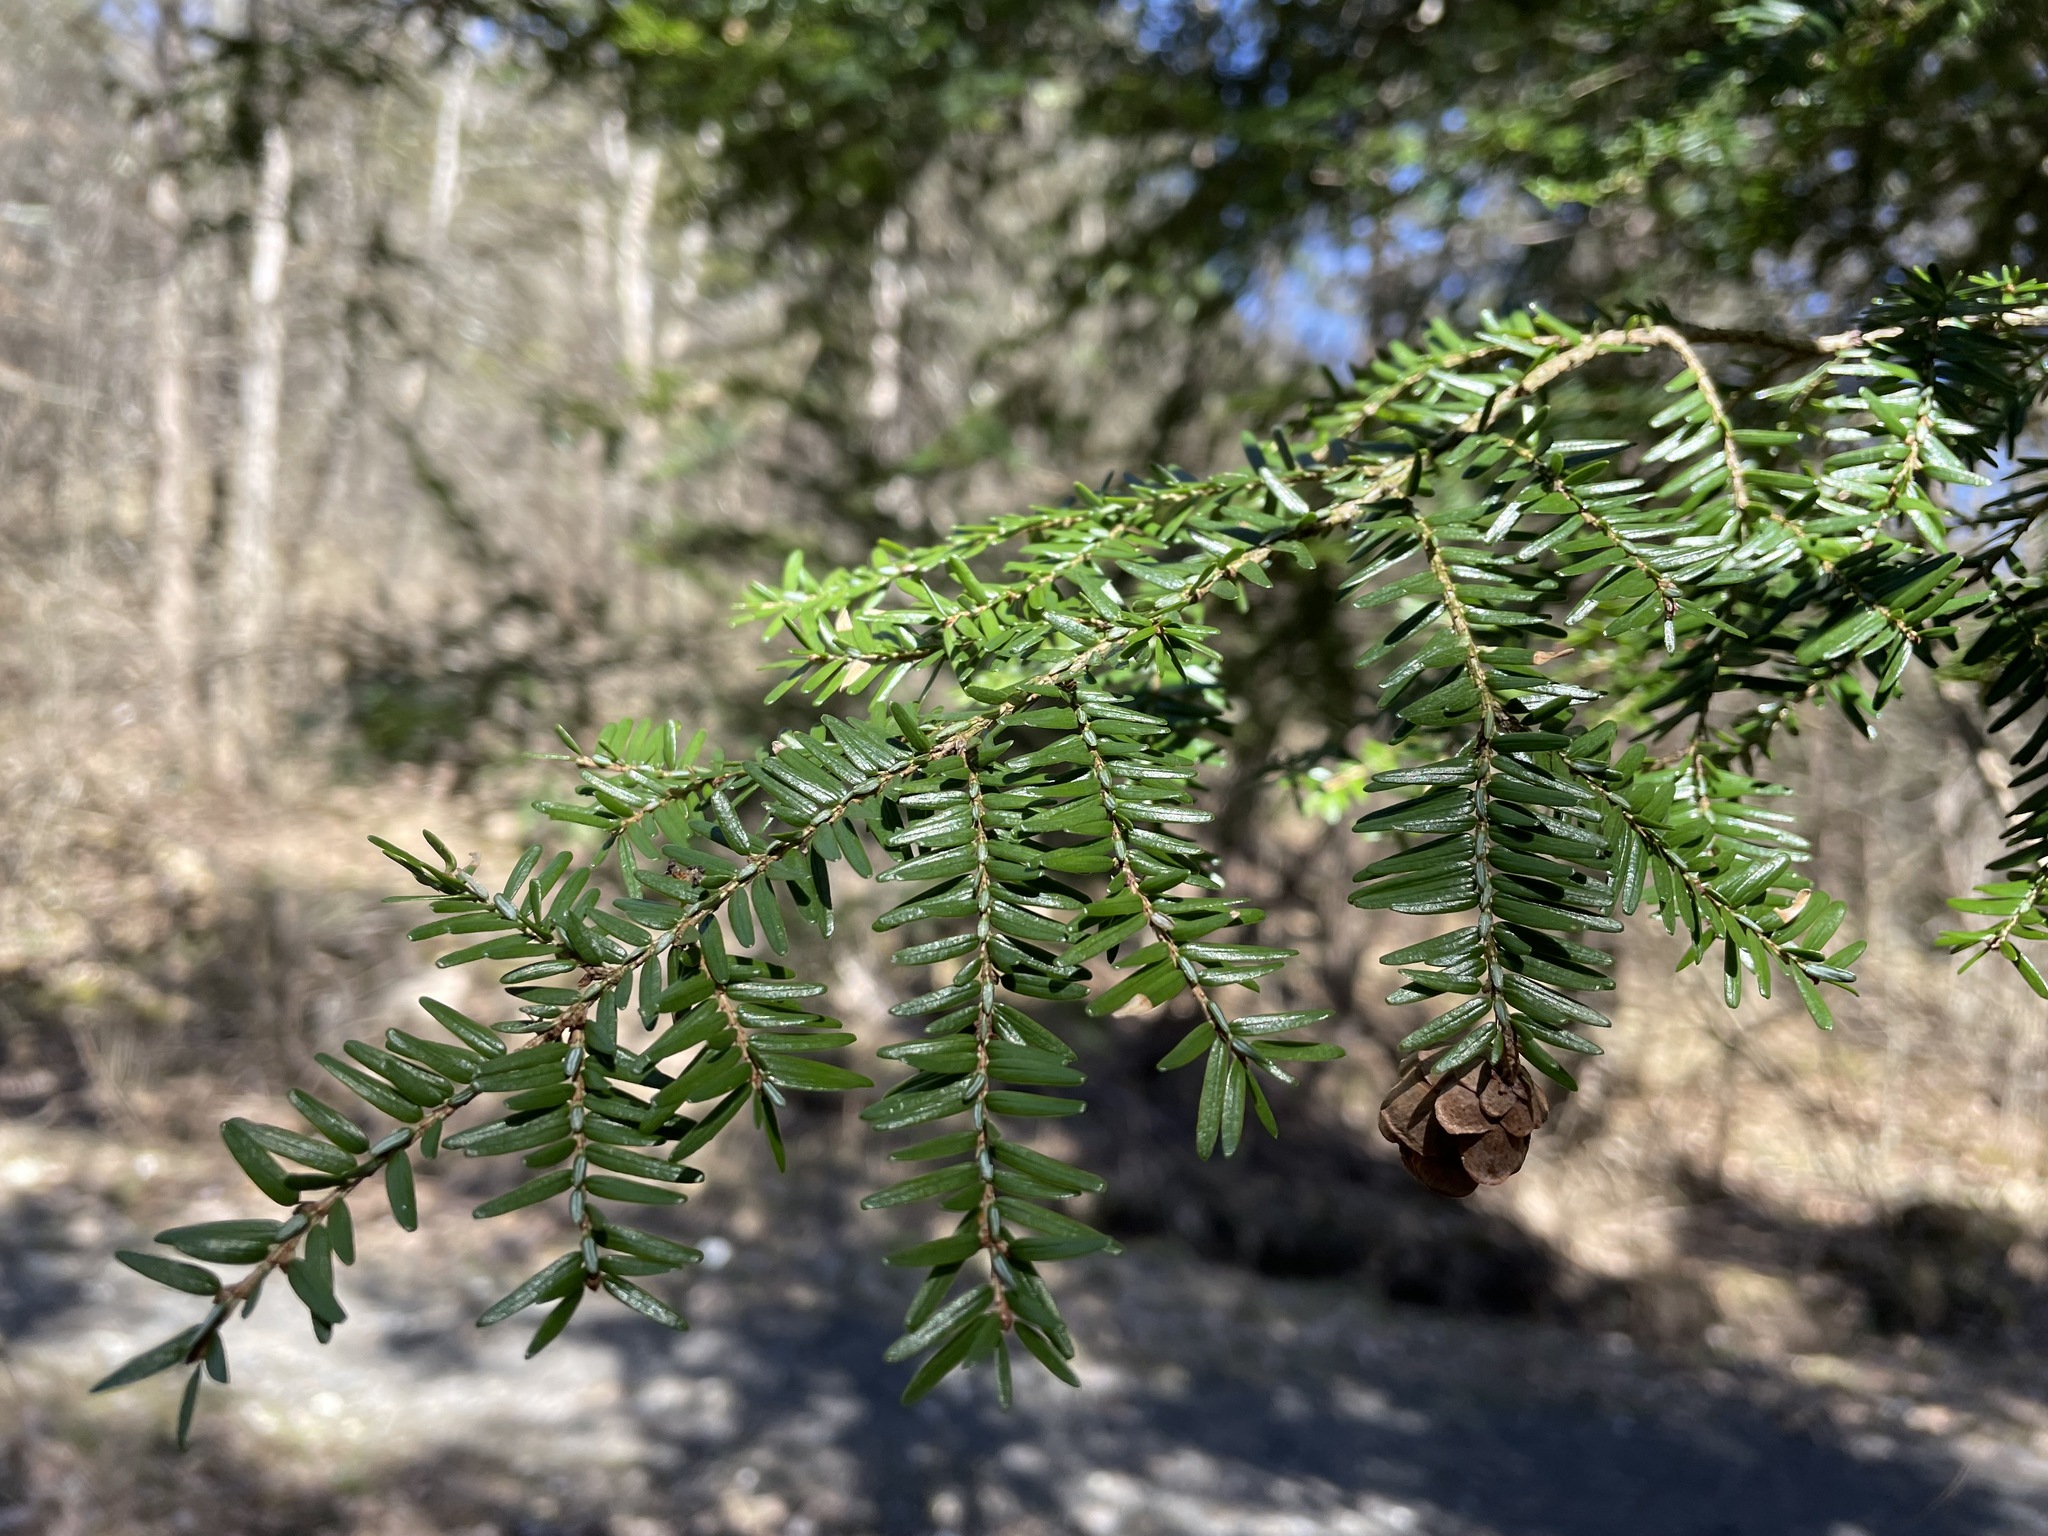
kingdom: Plantae
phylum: Tracheophyta
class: Pinopsida
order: Pinales
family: Pinaceae
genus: Tsuga
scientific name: Tsuga canadensis
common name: Eastern hemlock
